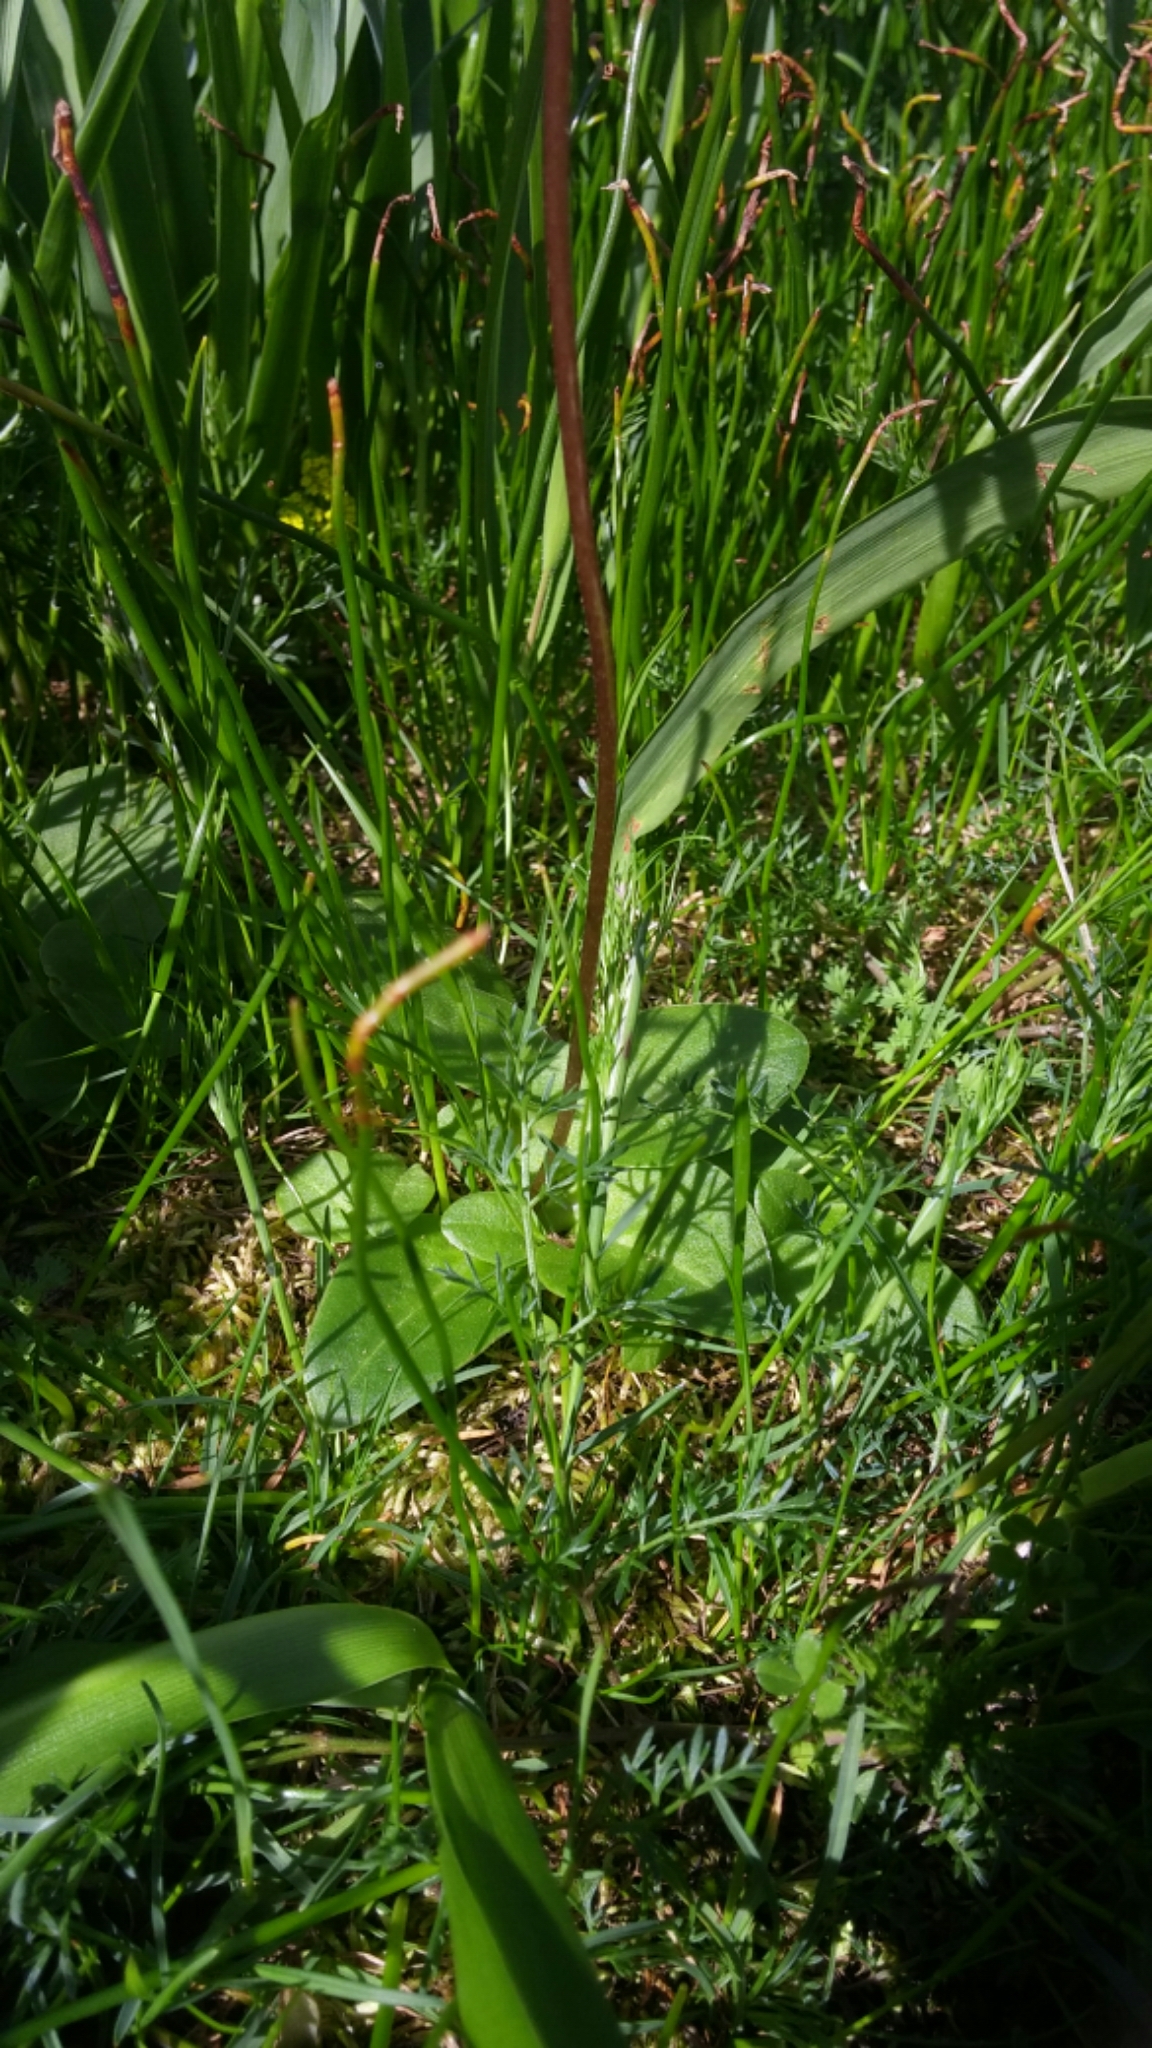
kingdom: Plantae
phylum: Tracheophyta
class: Magnoliopsida
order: Ericales
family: Primulaceae
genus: Dodecatheon
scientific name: Dodecatheon hendersonii
